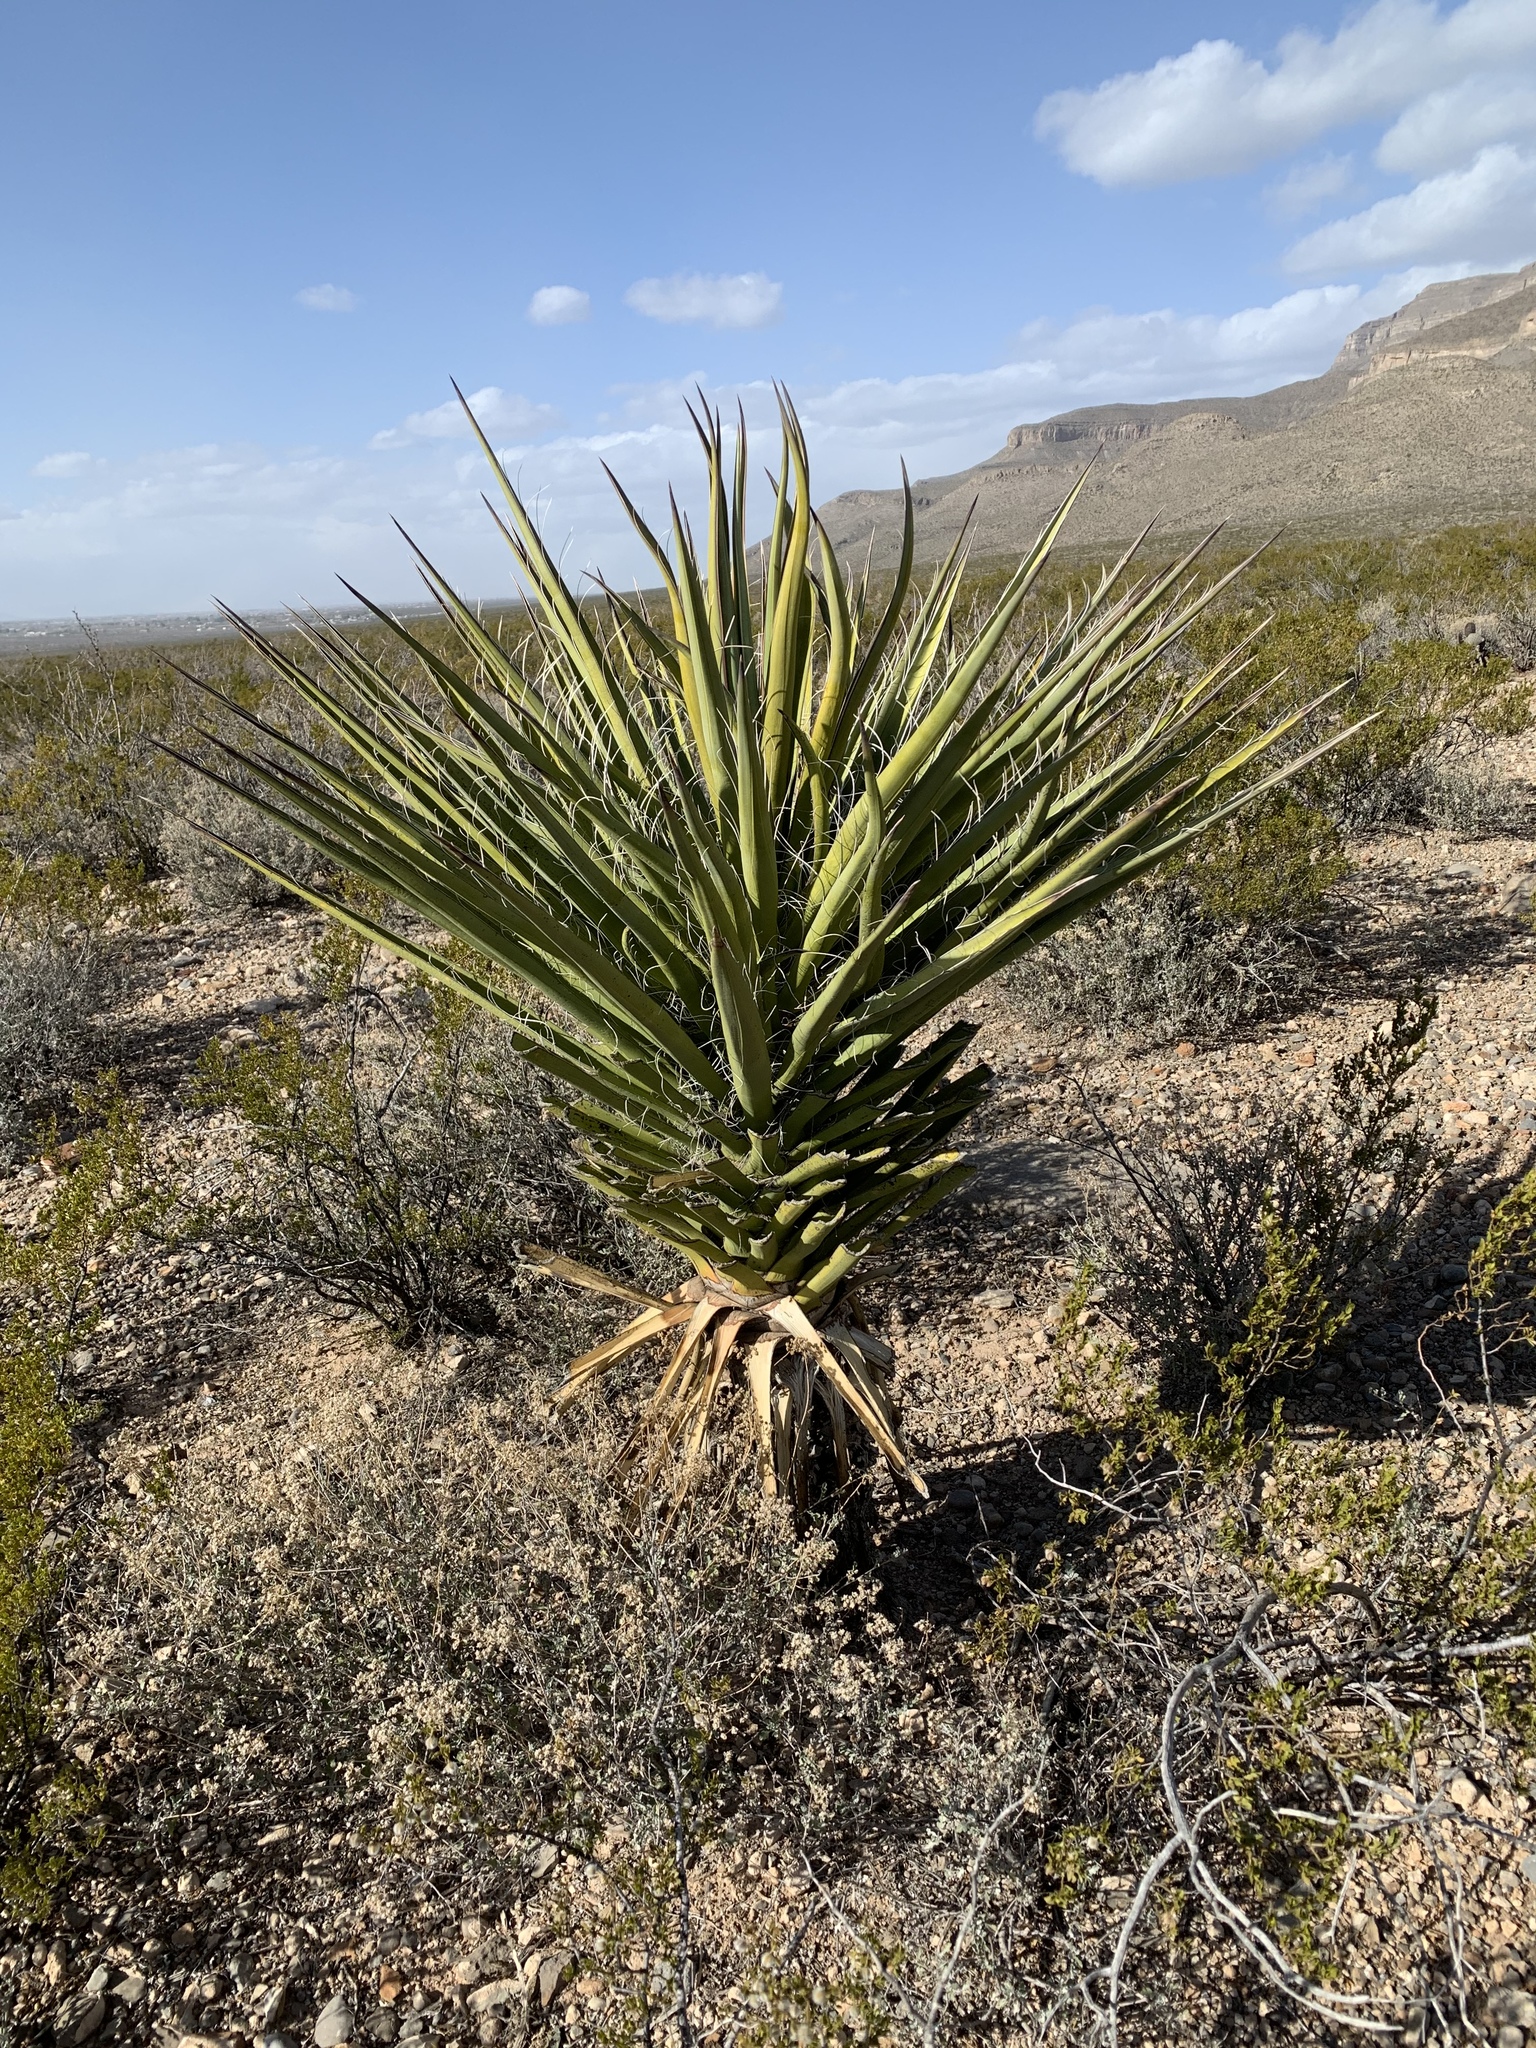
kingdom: Plantae
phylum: Tracheophyta
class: Liliopsida
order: Asparagales
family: Asparagaceae
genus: Yucca
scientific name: Yucca treculiana
